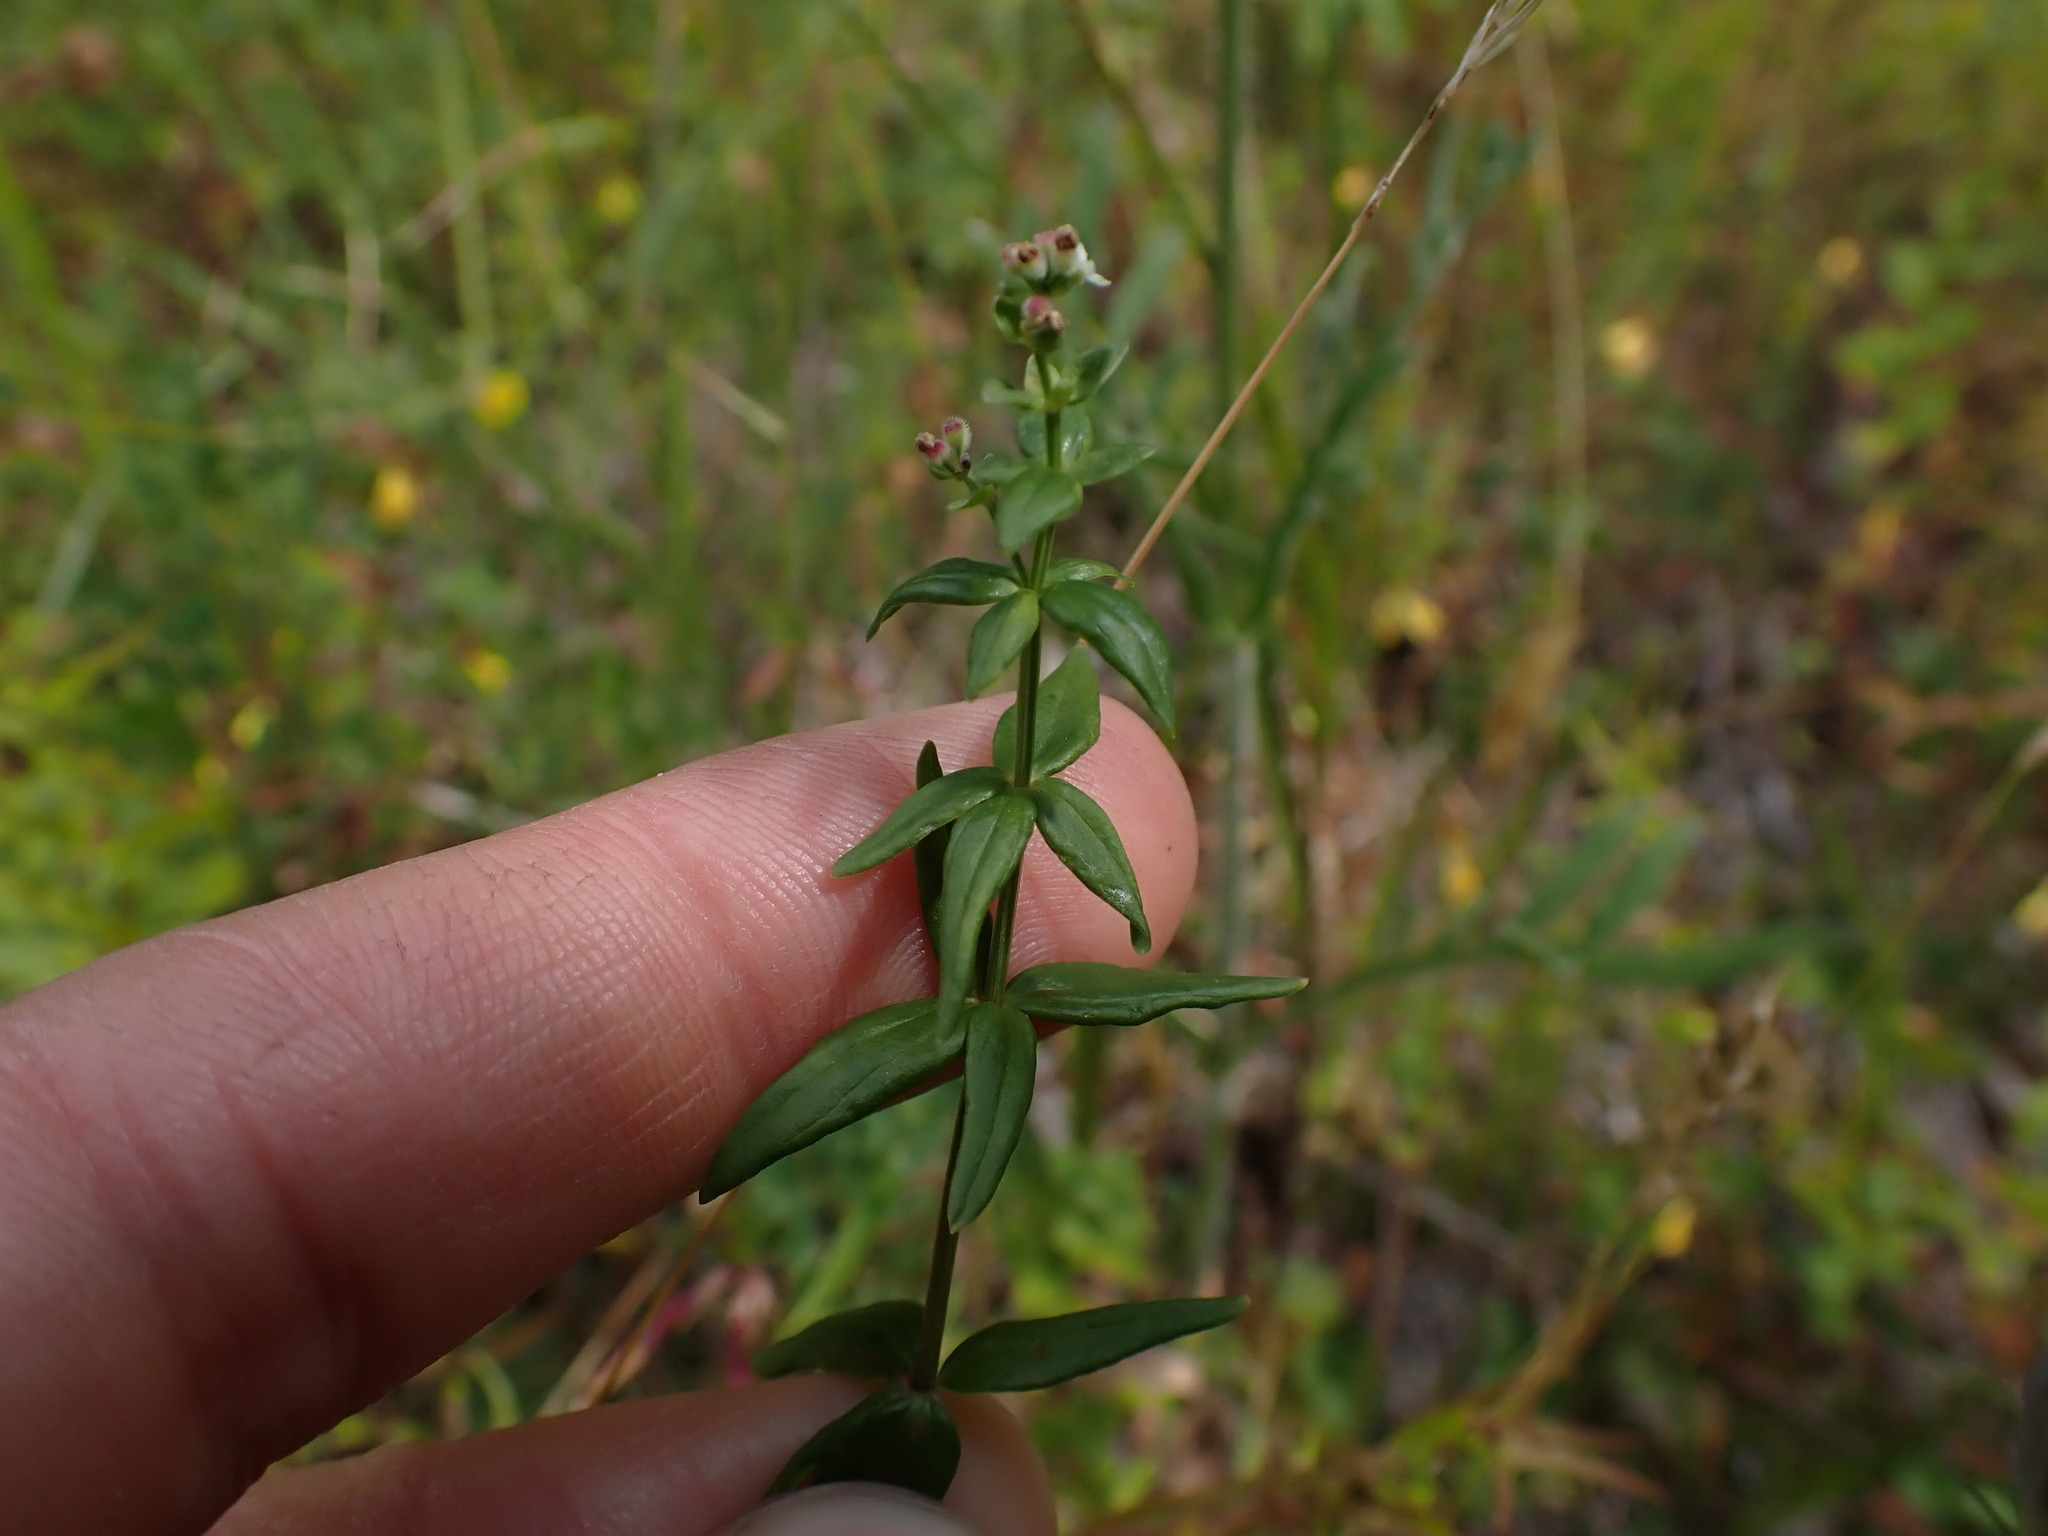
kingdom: Plantae
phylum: Tracheophyta
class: Magnoliopsida
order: Gentianales
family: Rubiaceae
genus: Galium
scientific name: Galium boreale
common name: Northern bedstraw
